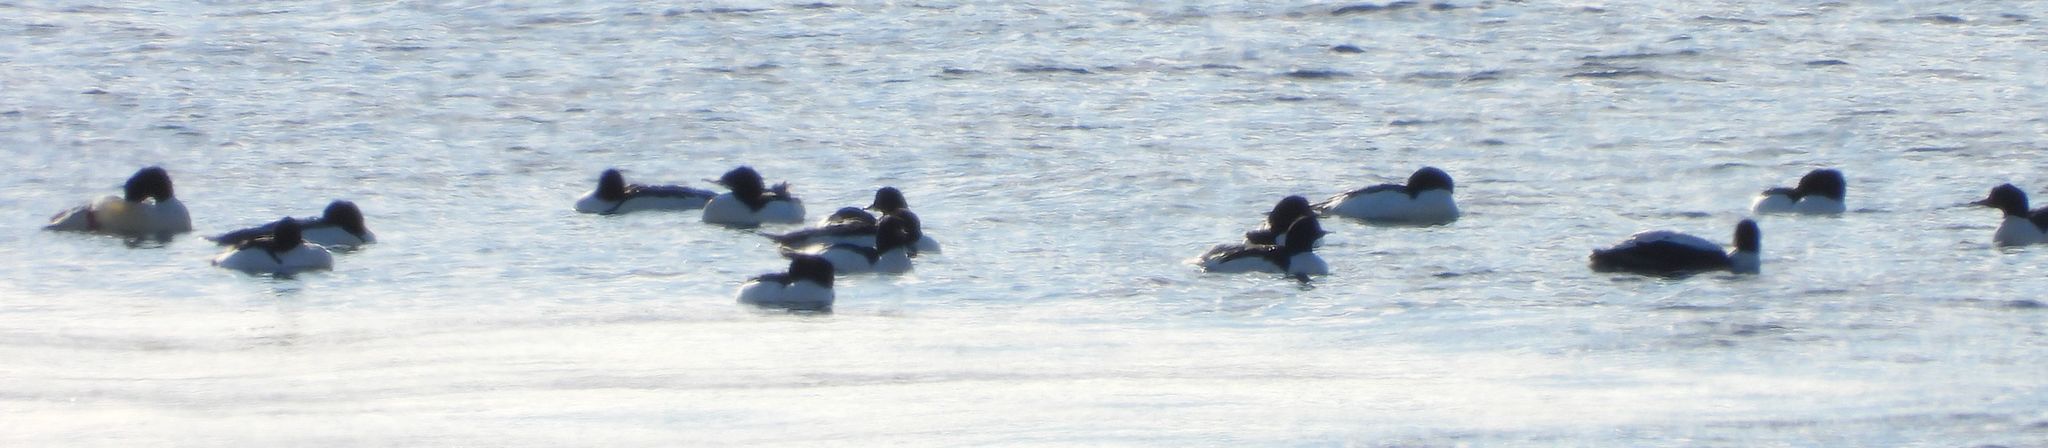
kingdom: Animalia
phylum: Chordata
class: Aves
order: Anseriformes
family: Anatidae
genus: Mergus
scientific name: Mergus merganser
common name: Common merganser
